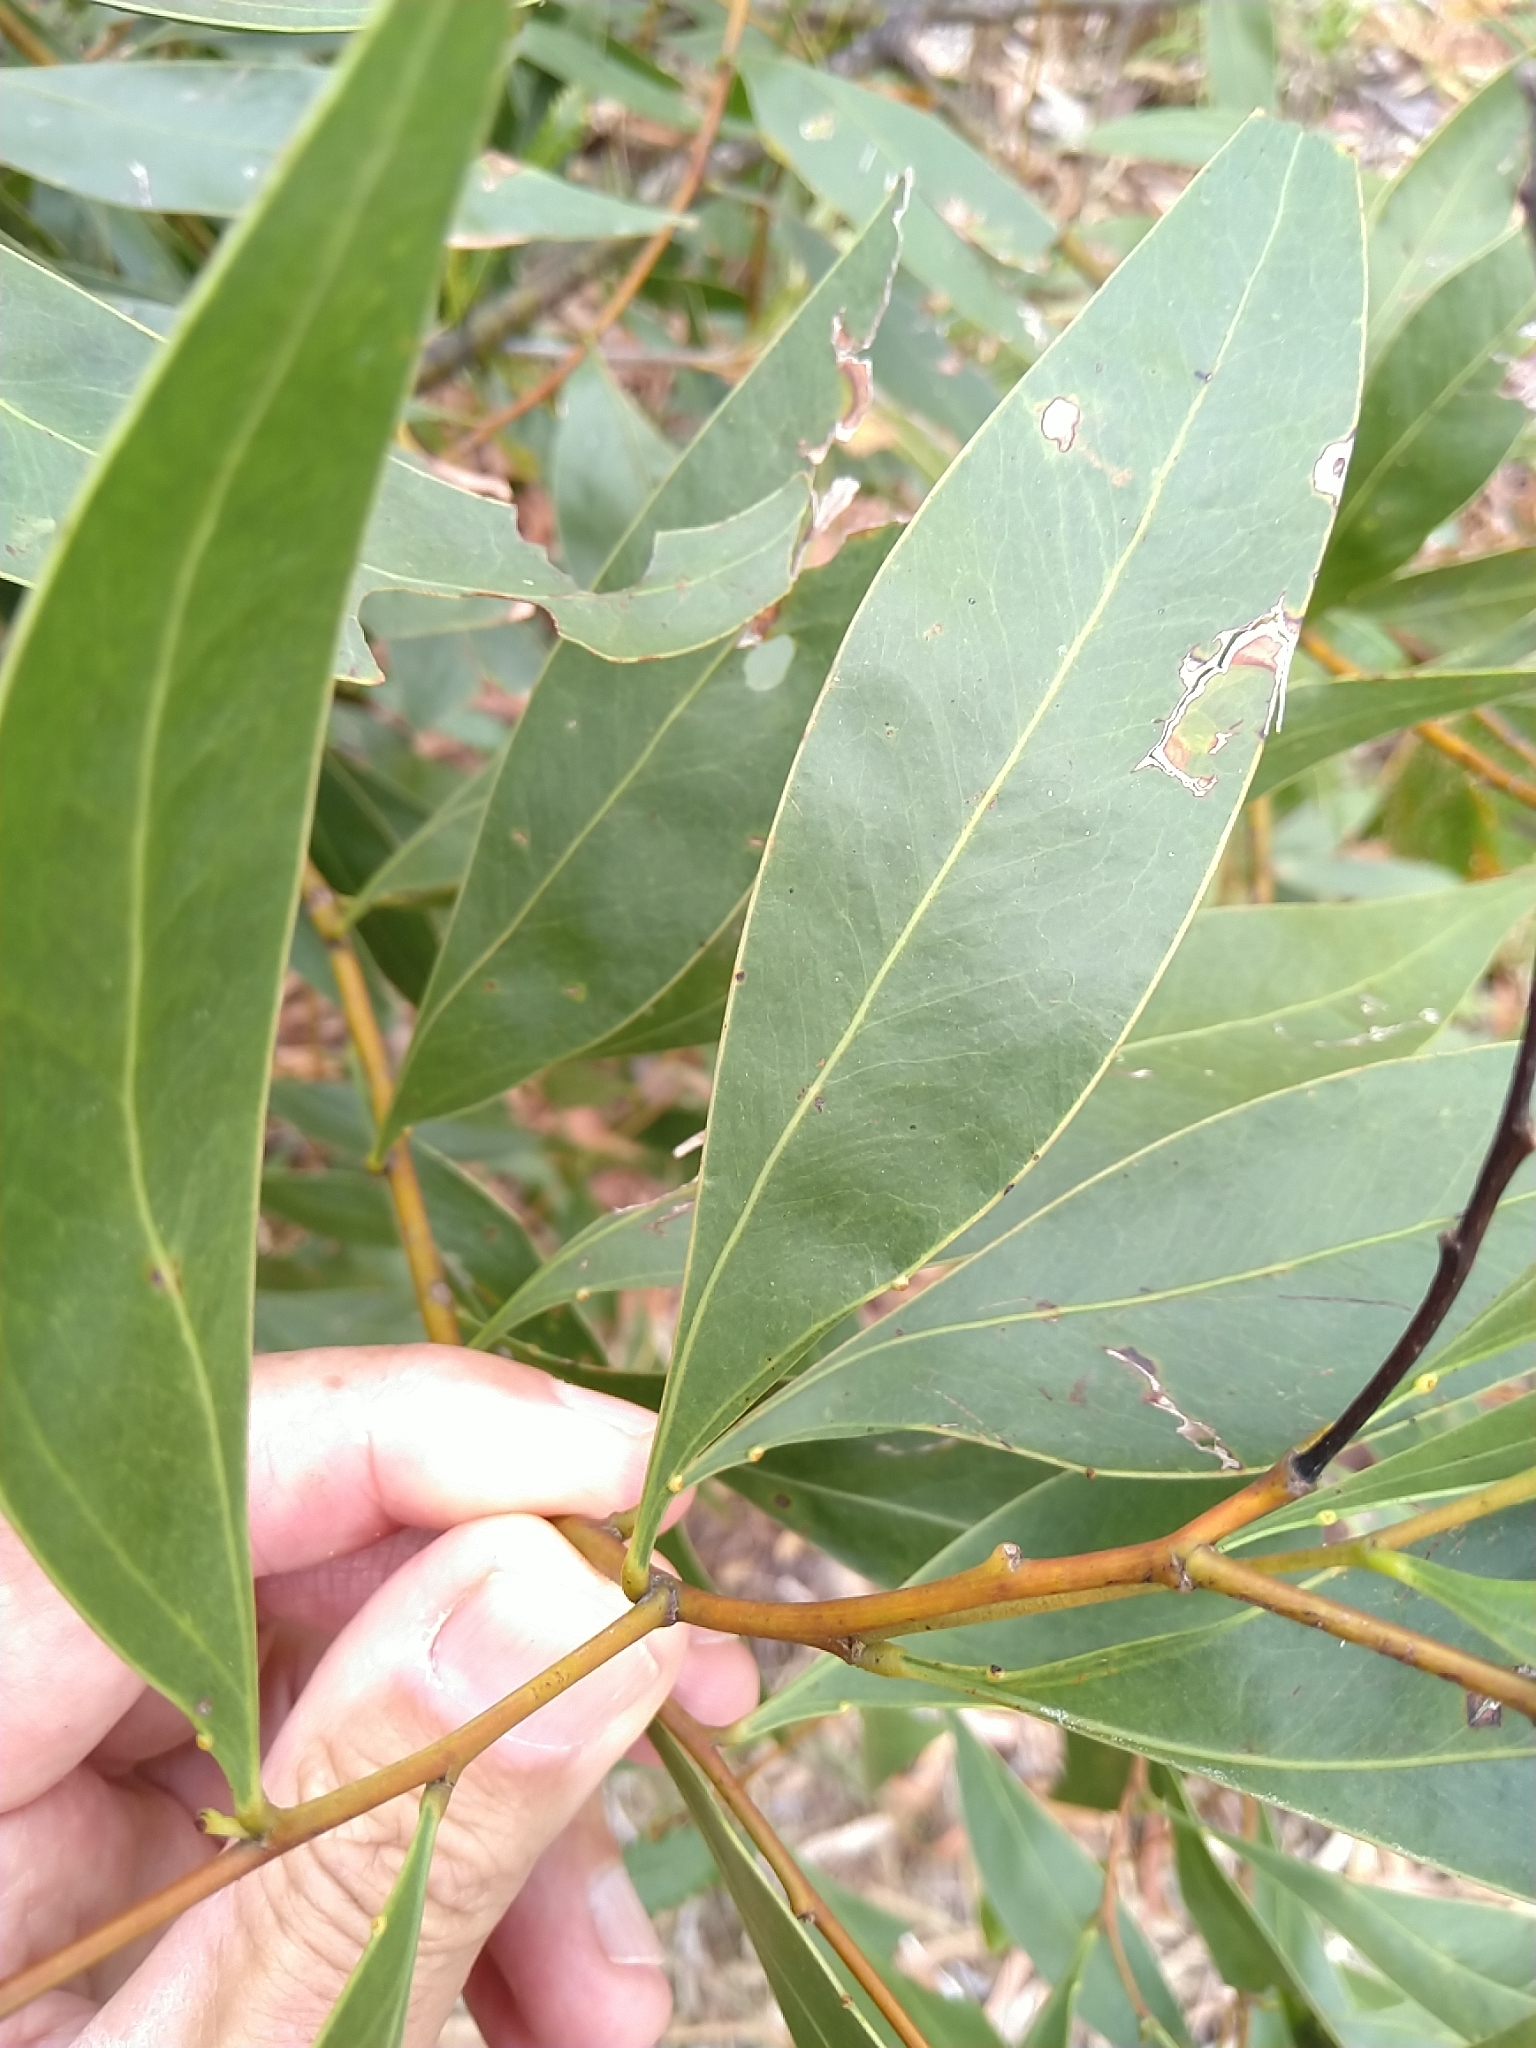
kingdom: Plantae
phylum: Tracheophyta
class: Magnoliopsida
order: Fabales
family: Fabaceae
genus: Acacia
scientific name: Acacia penninervis
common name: Hickory wattle
